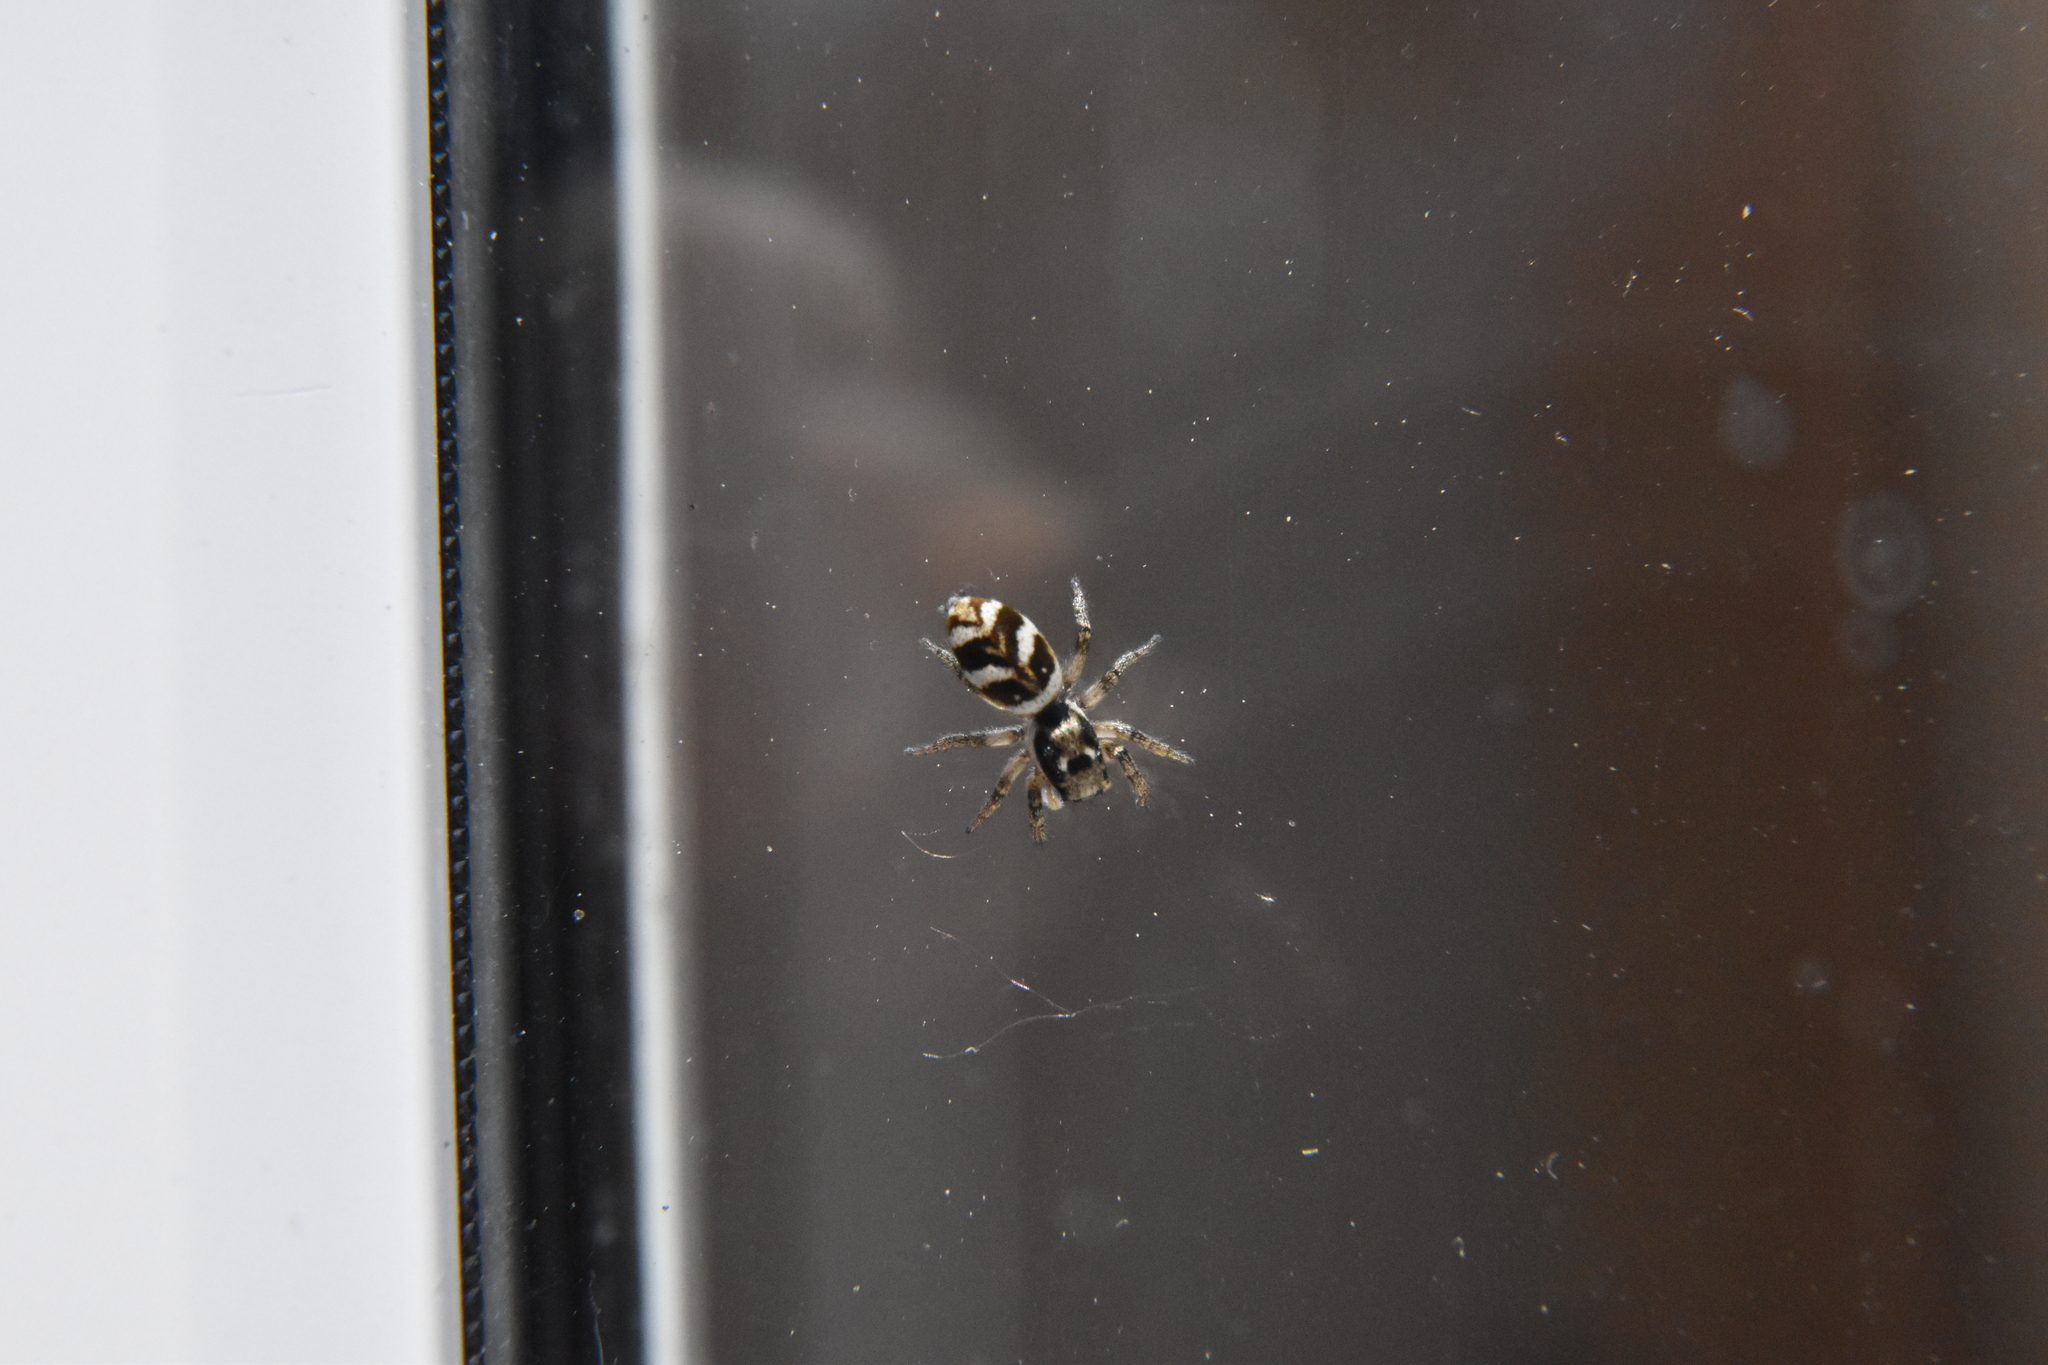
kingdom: Animalia
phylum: Arthropoda
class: Arachnida
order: Araneae
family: Salticidae
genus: Salticus
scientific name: Salticus scenicus
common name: Zebra jumper
